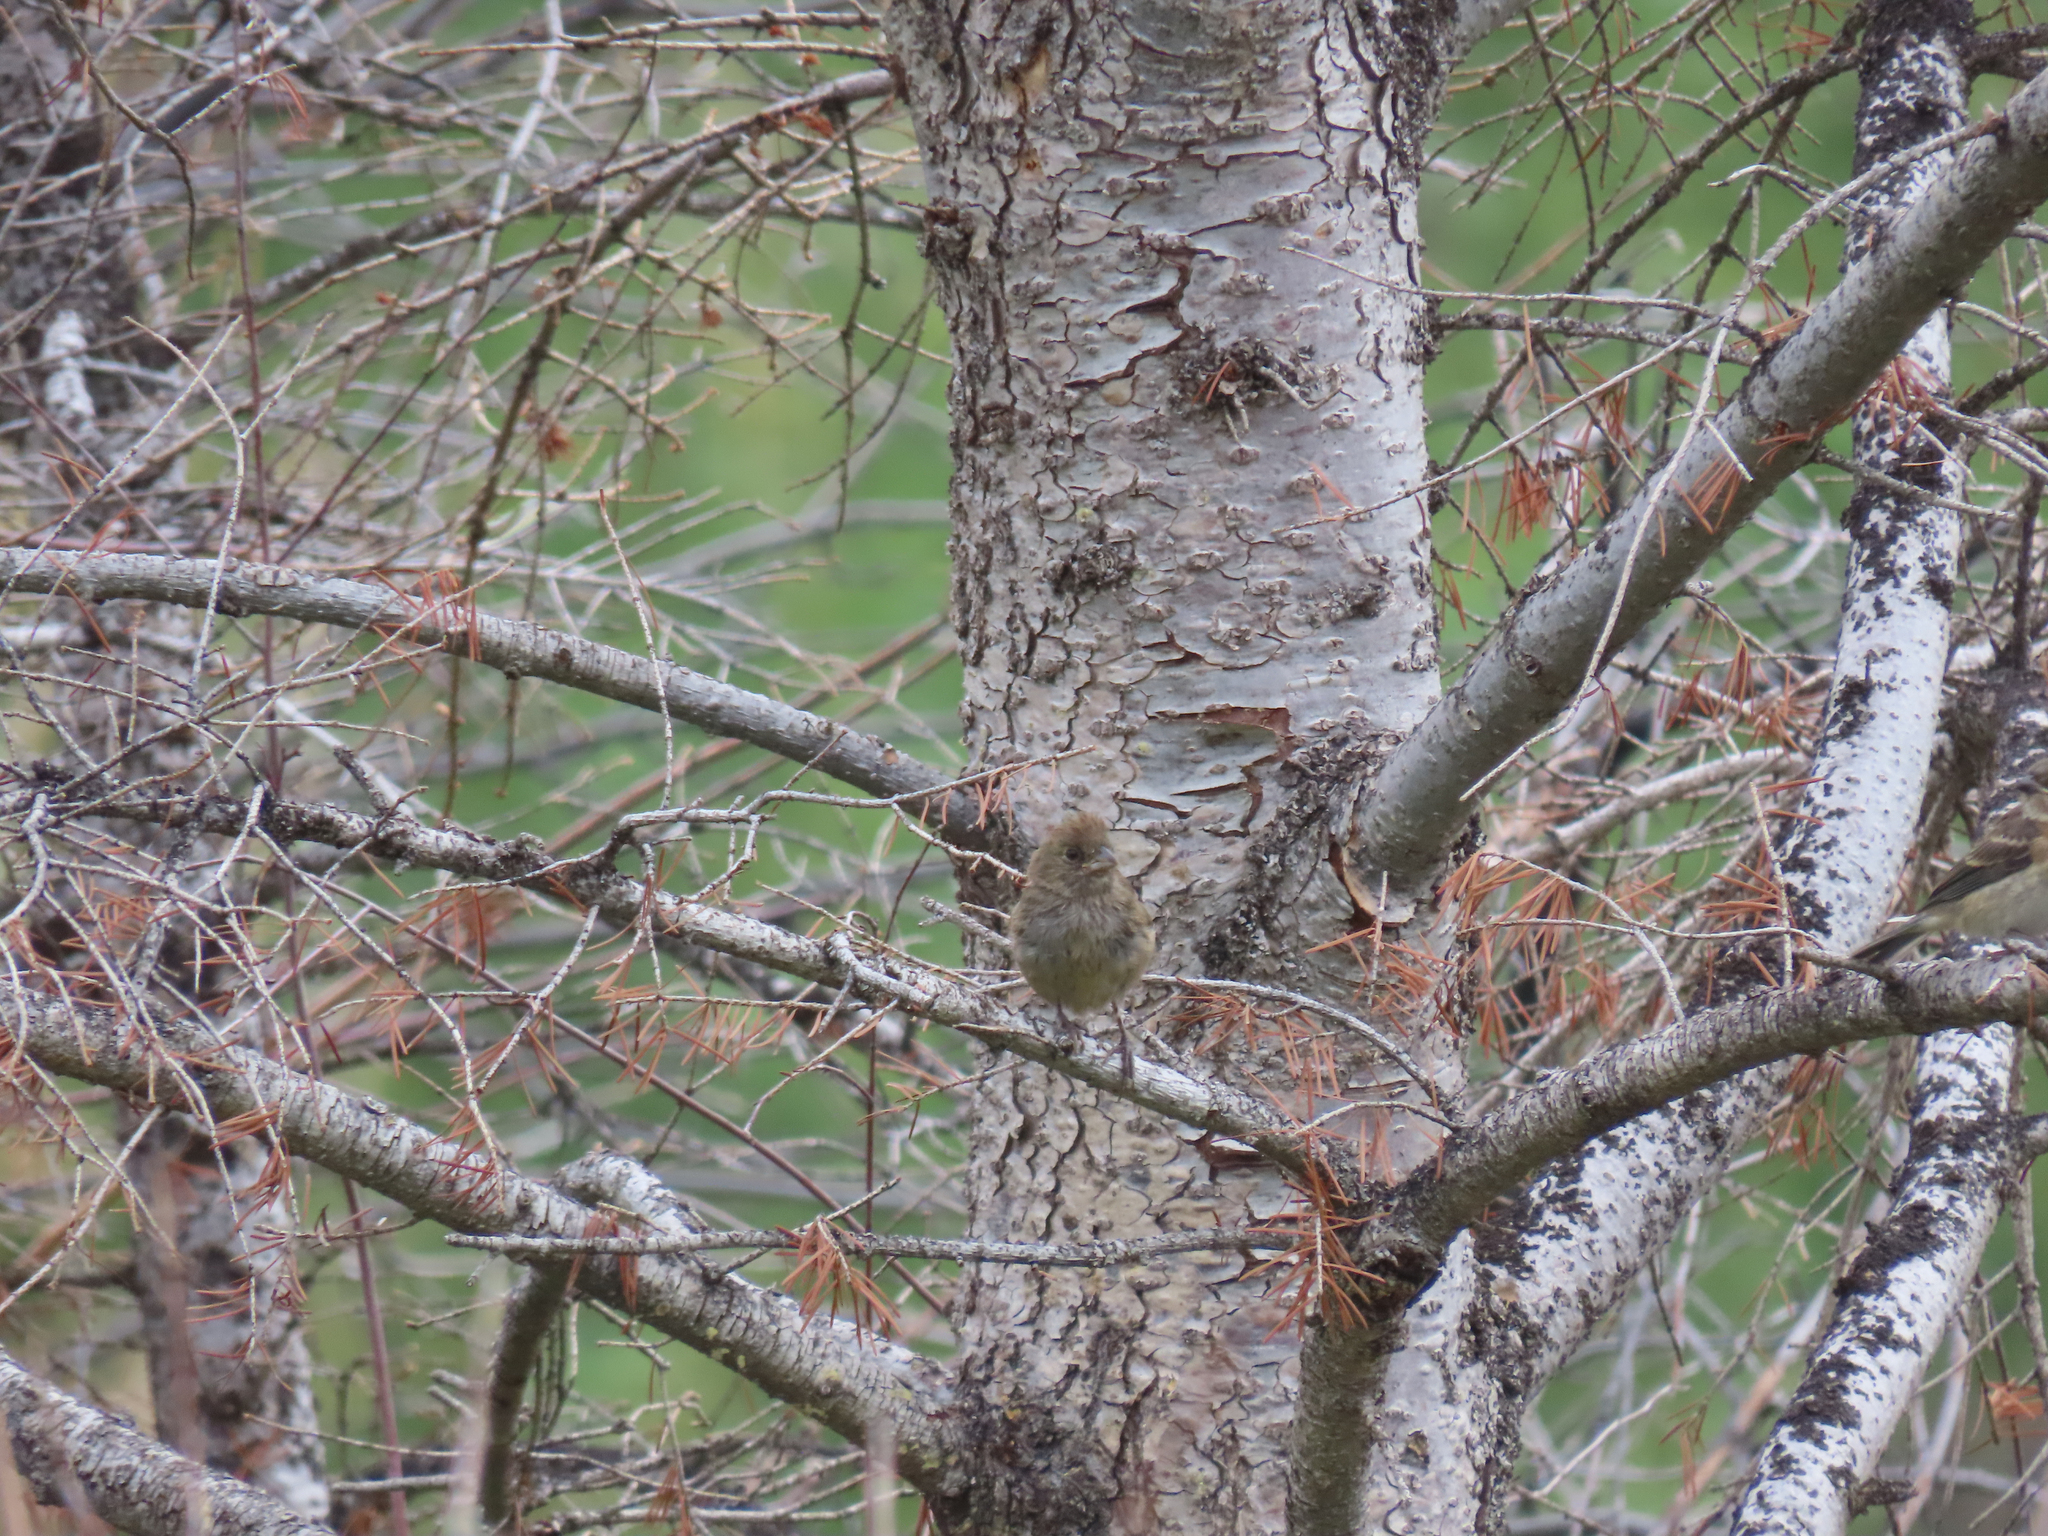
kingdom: Animalia
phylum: Chordata
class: Aves
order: Passeriformes
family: Passerellidae
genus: Pipilo
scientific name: Pipilo chlorurus
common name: Green-tailed towhee
